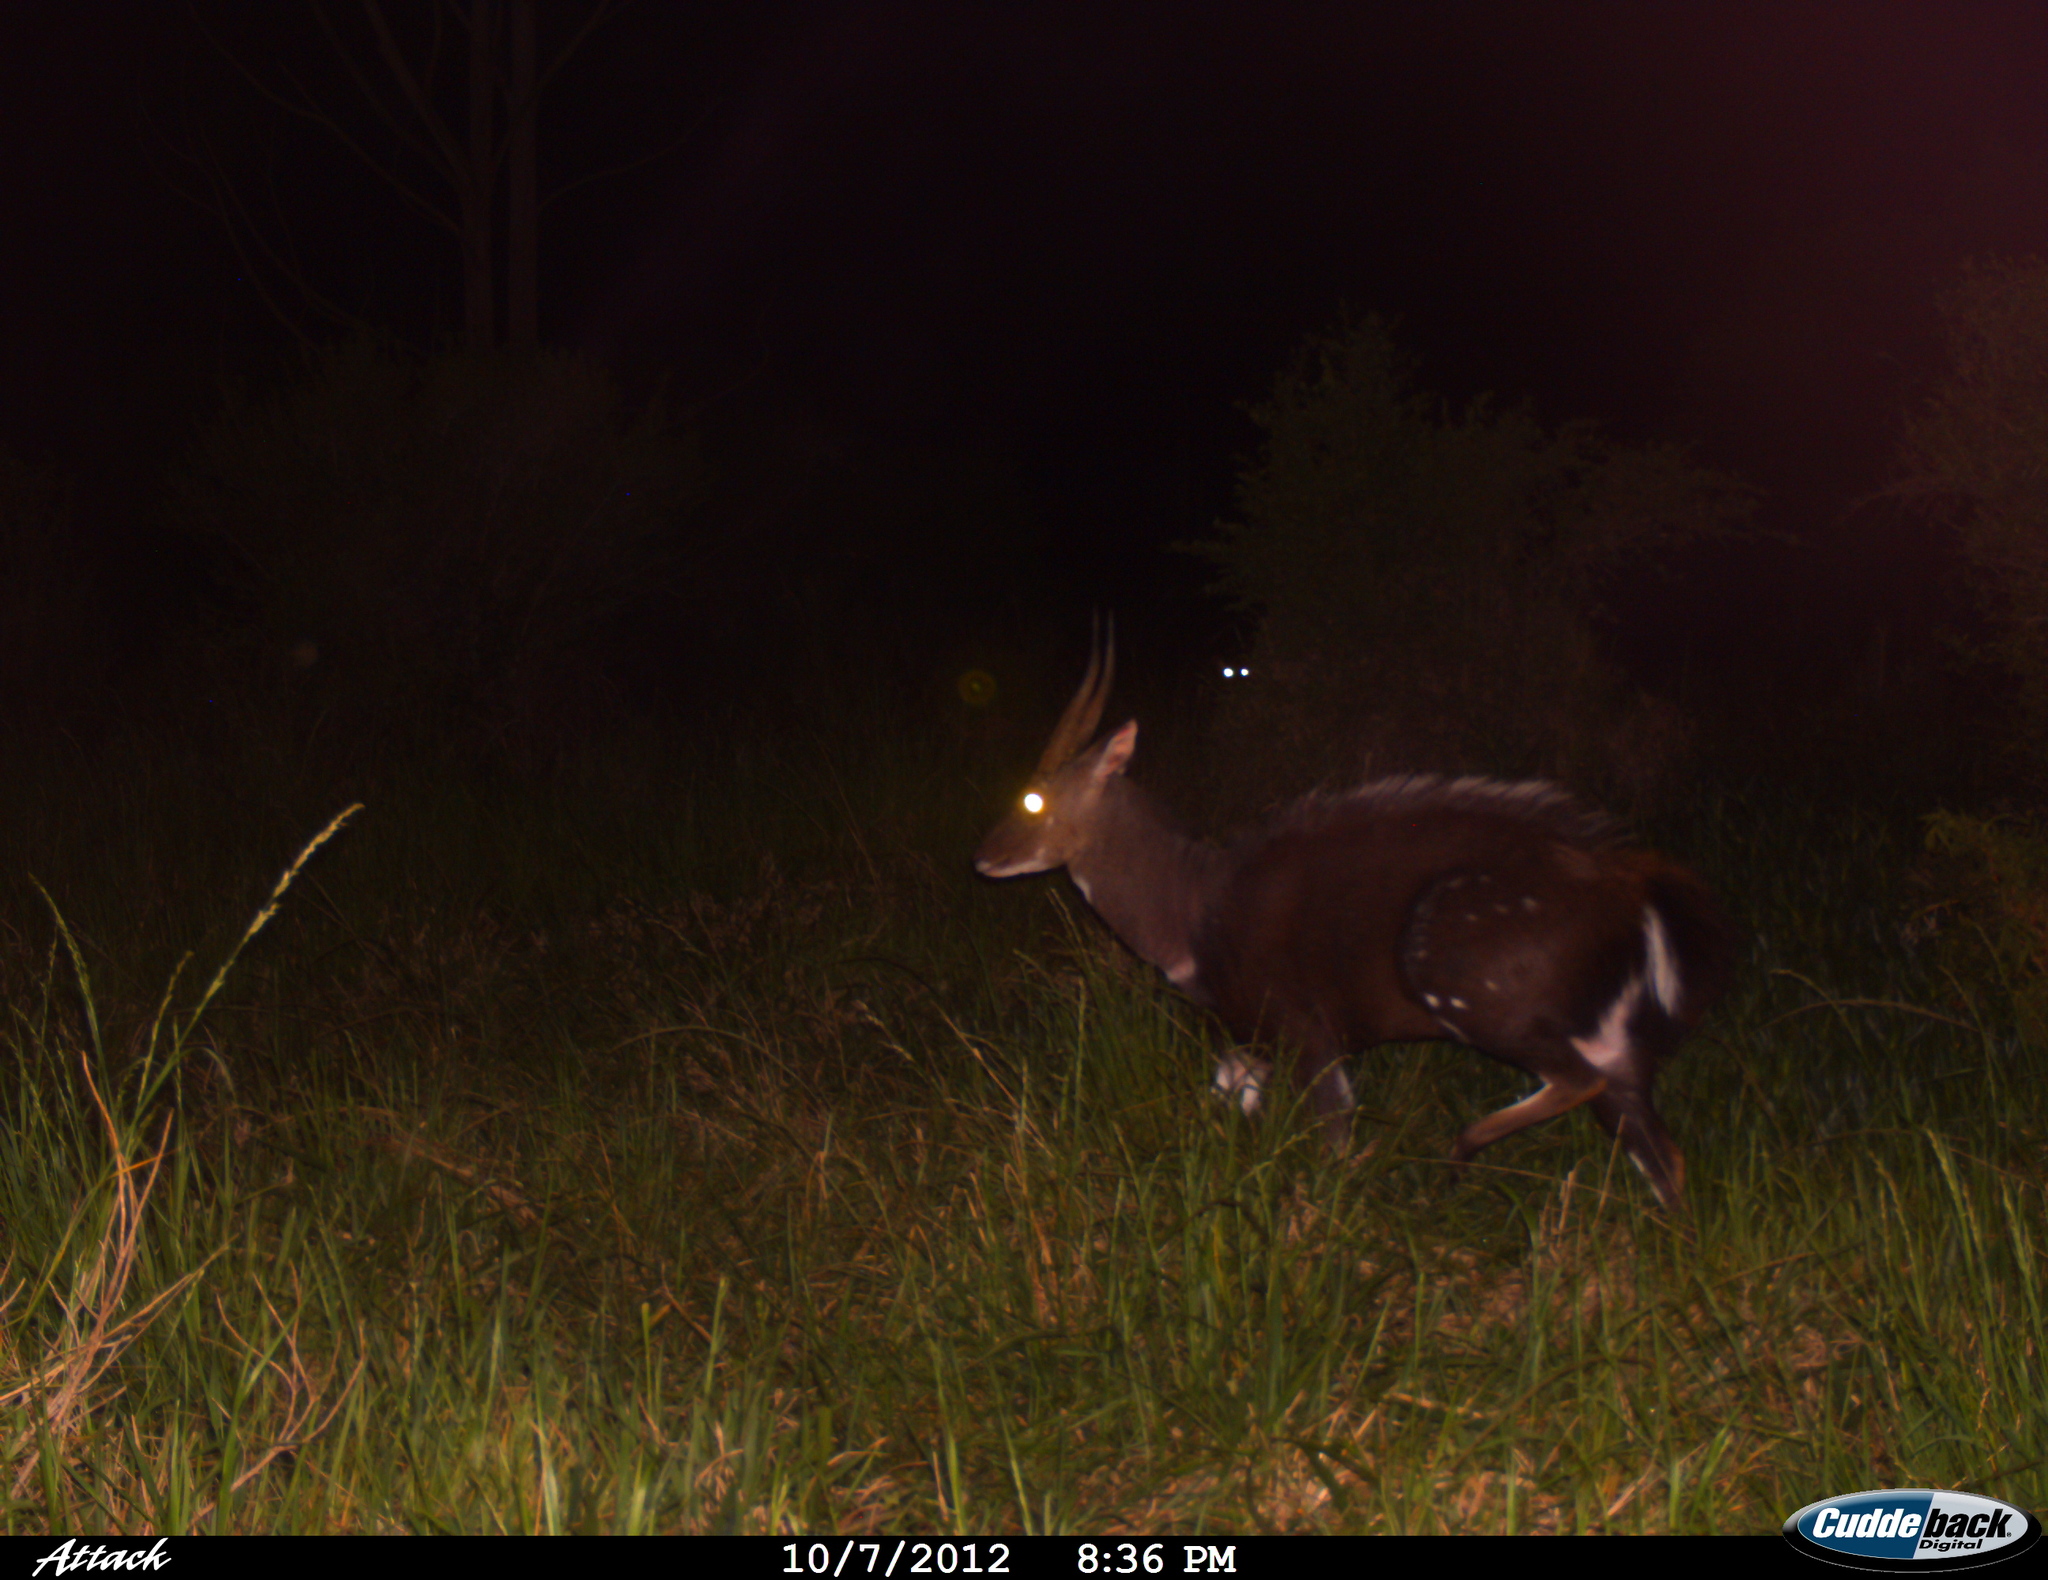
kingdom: Animalia
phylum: Chordata
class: Mammalia
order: Artiodactyla
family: Bovidae
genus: Tragelaphus
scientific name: Tragelaphus scriptus
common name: Bushbuck
